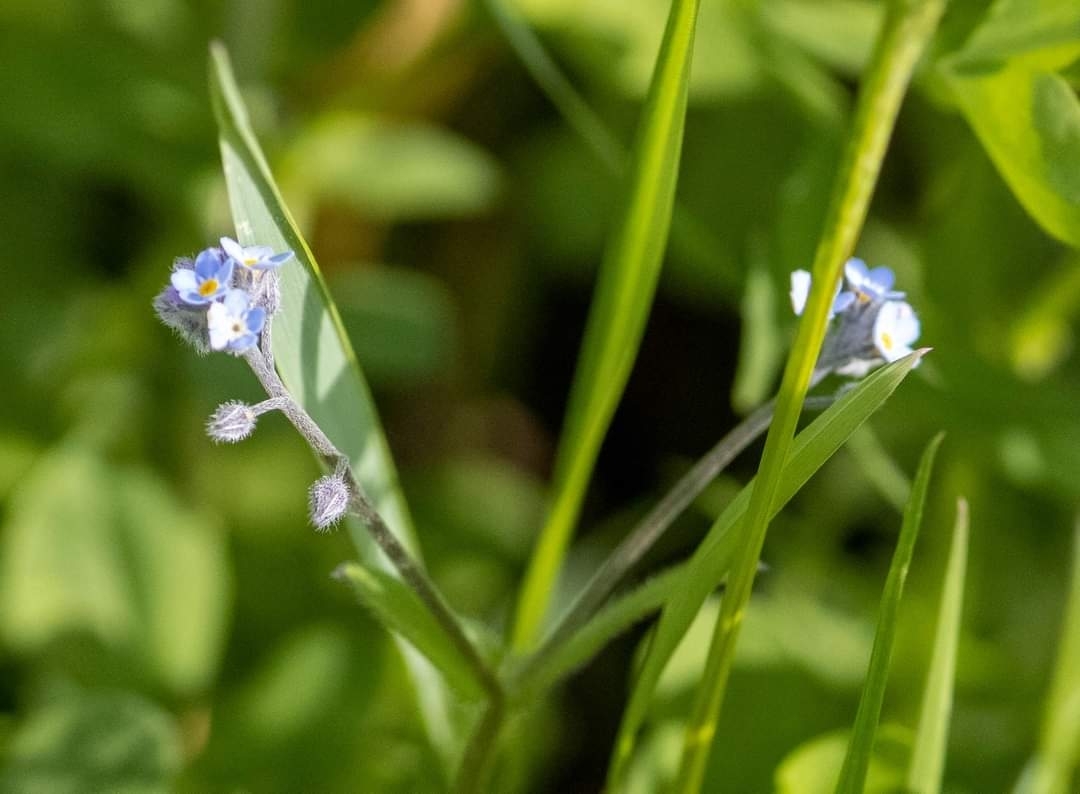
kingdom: Plantae
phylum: Tracheophyta
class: Magnoliopsida
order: Boraginales
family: Boraginaceae
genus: Myosotis
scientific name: Myosotis arvensis
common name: Field forget-me-not
